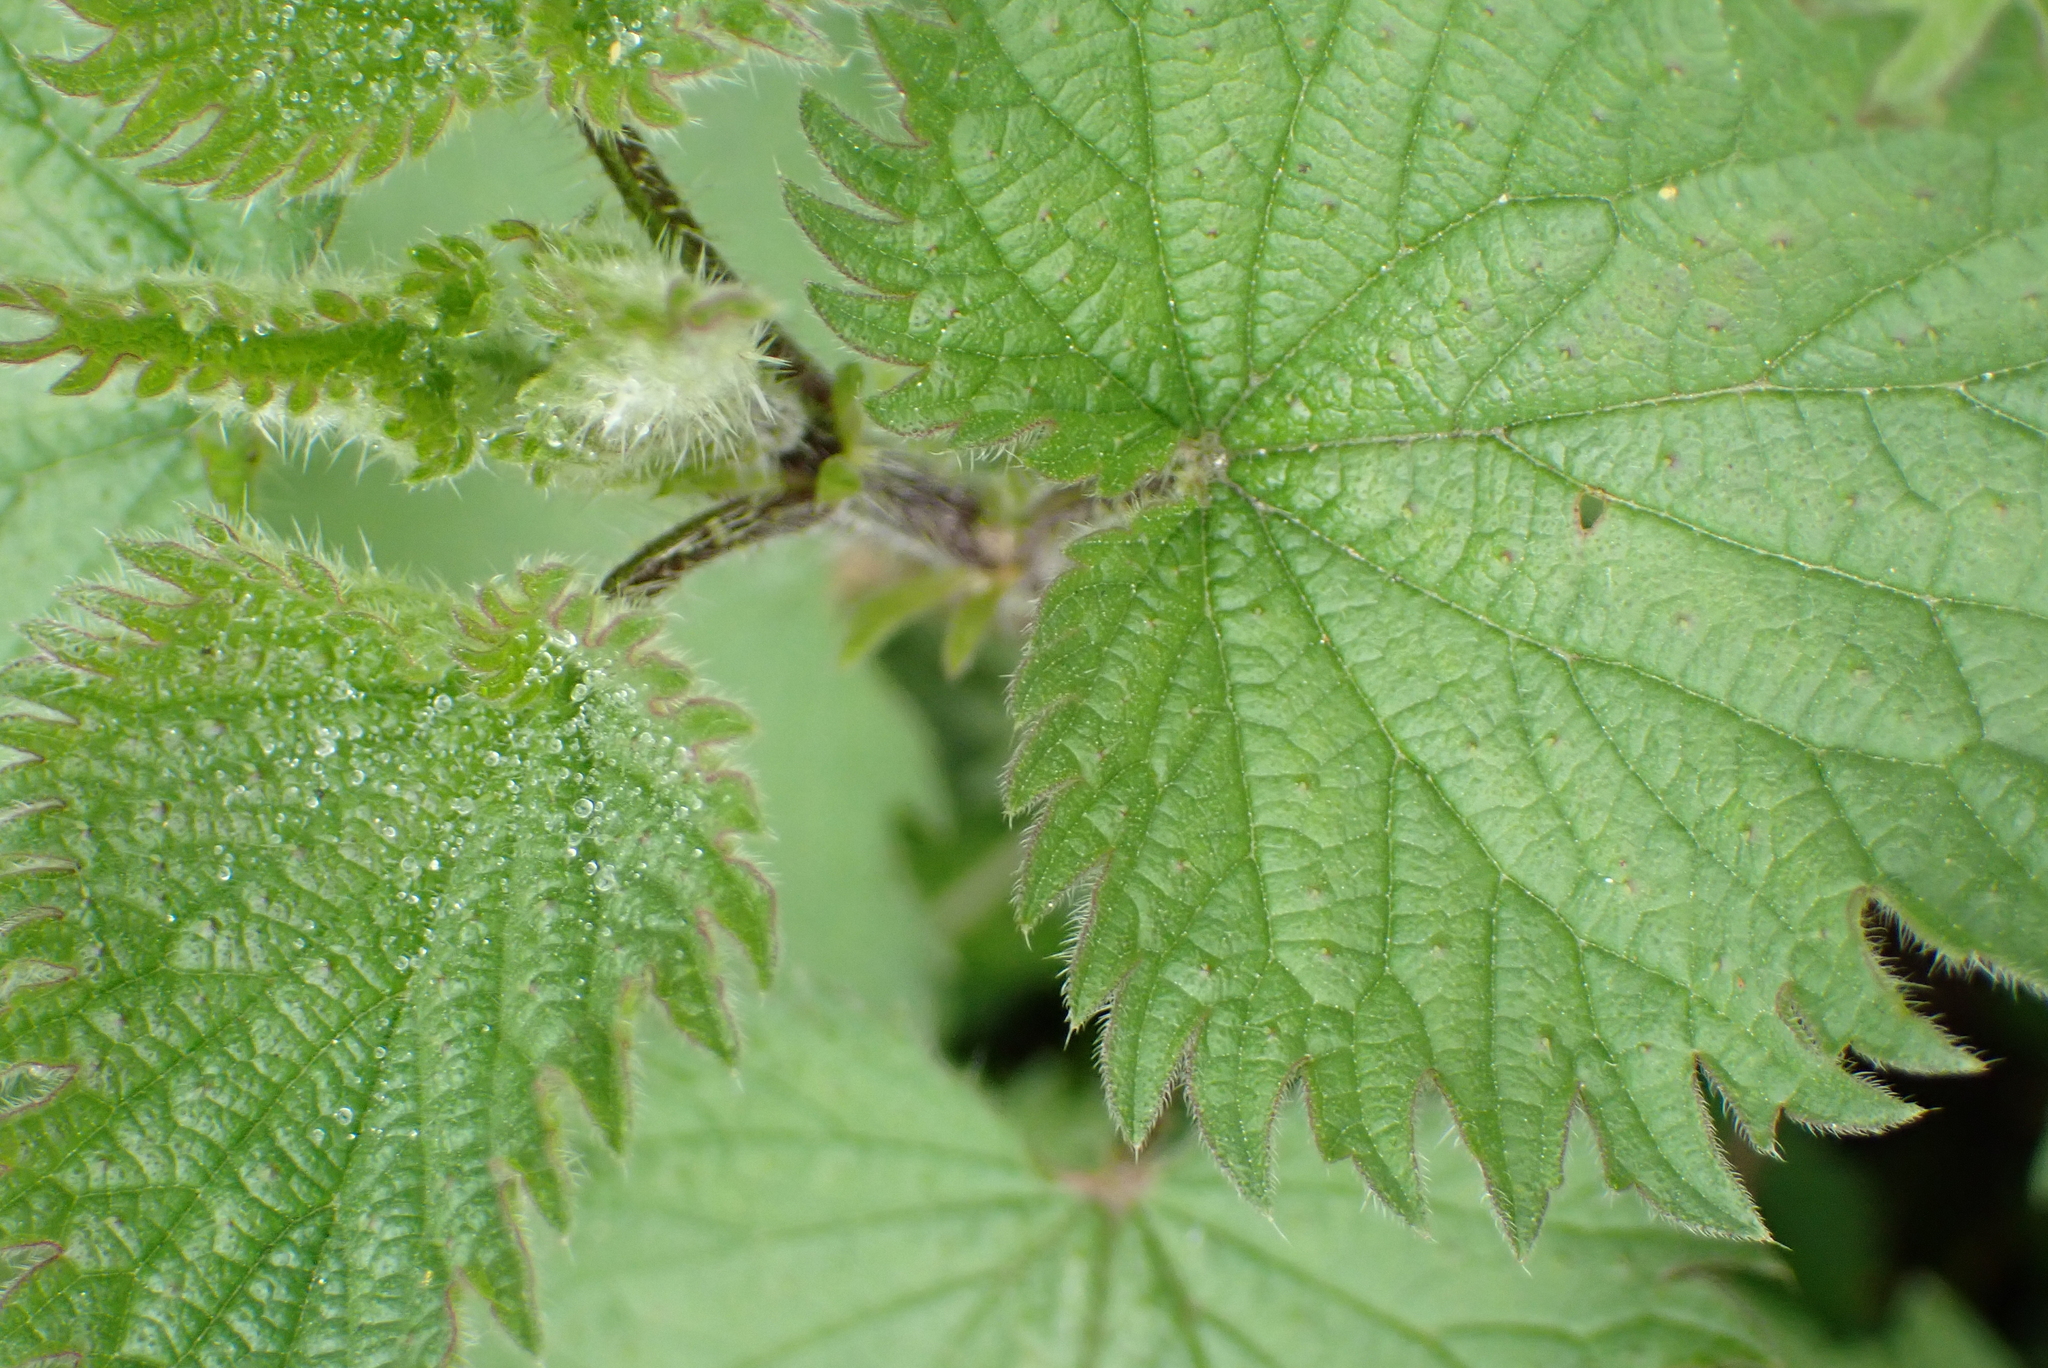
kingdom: Plantae
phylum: Tracheophyta
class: Magnoliopsida
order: Rosales
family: Urticaceae
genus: Urtica
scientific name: Urtica dioica
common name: Common nettle
